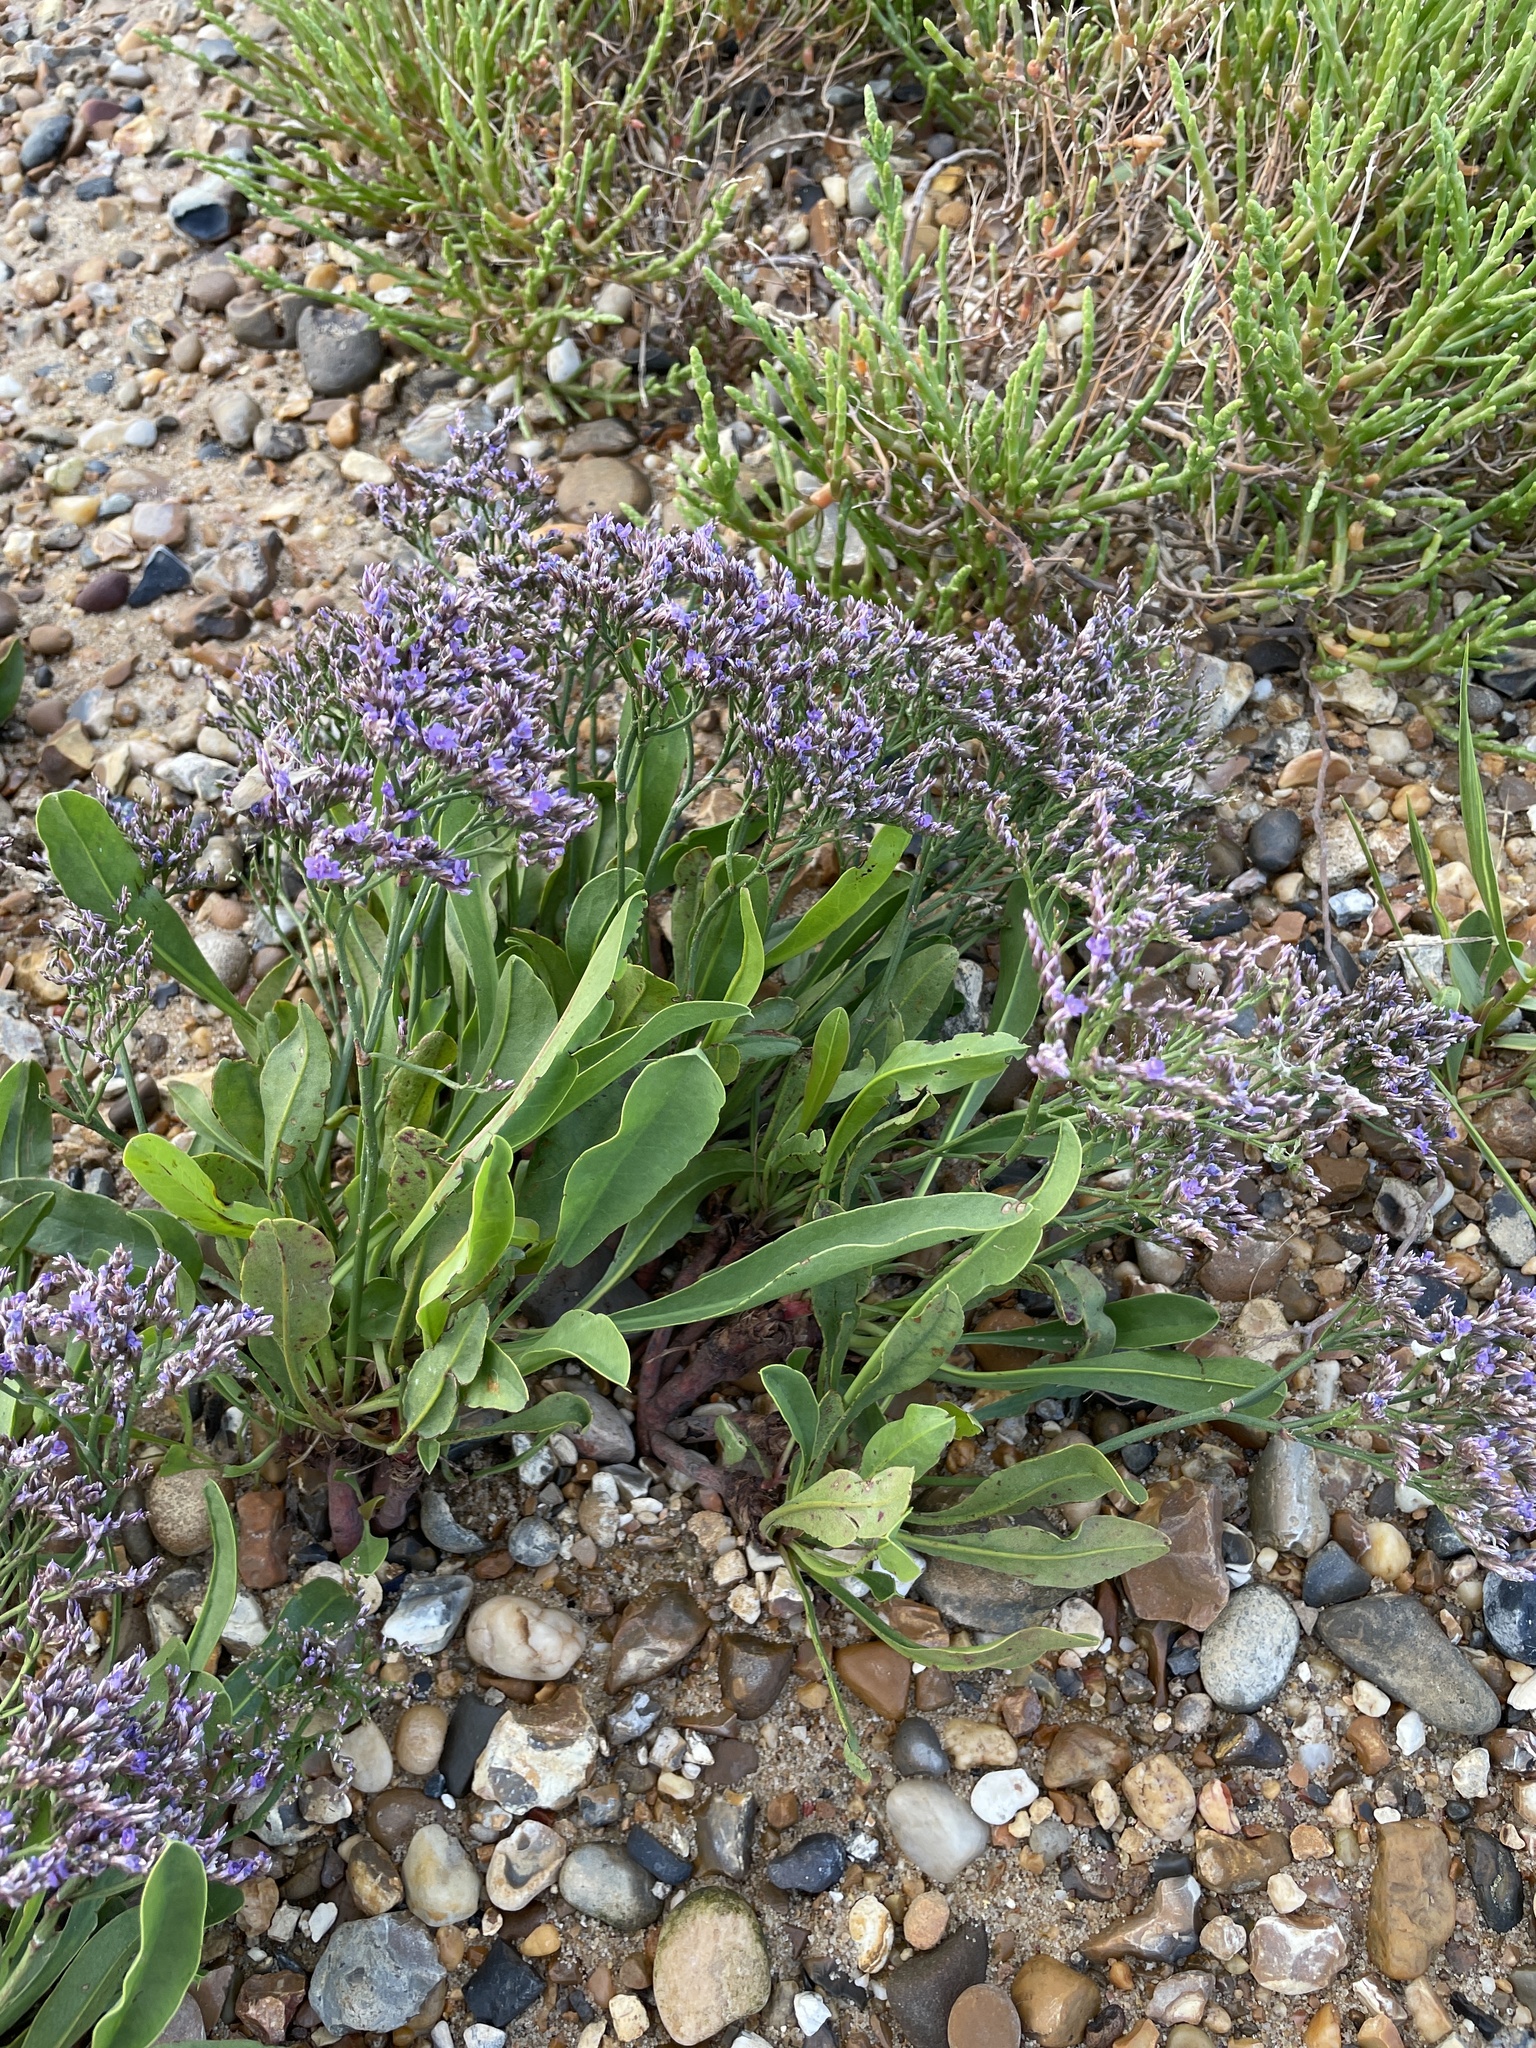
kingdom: Plantae
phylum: Tracheophyta
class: Magnoliopsida
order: Caryophyllales
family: Plumbaginaceae
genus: Limonium
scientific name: Limonium vulgare
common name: Common sea-lavender
